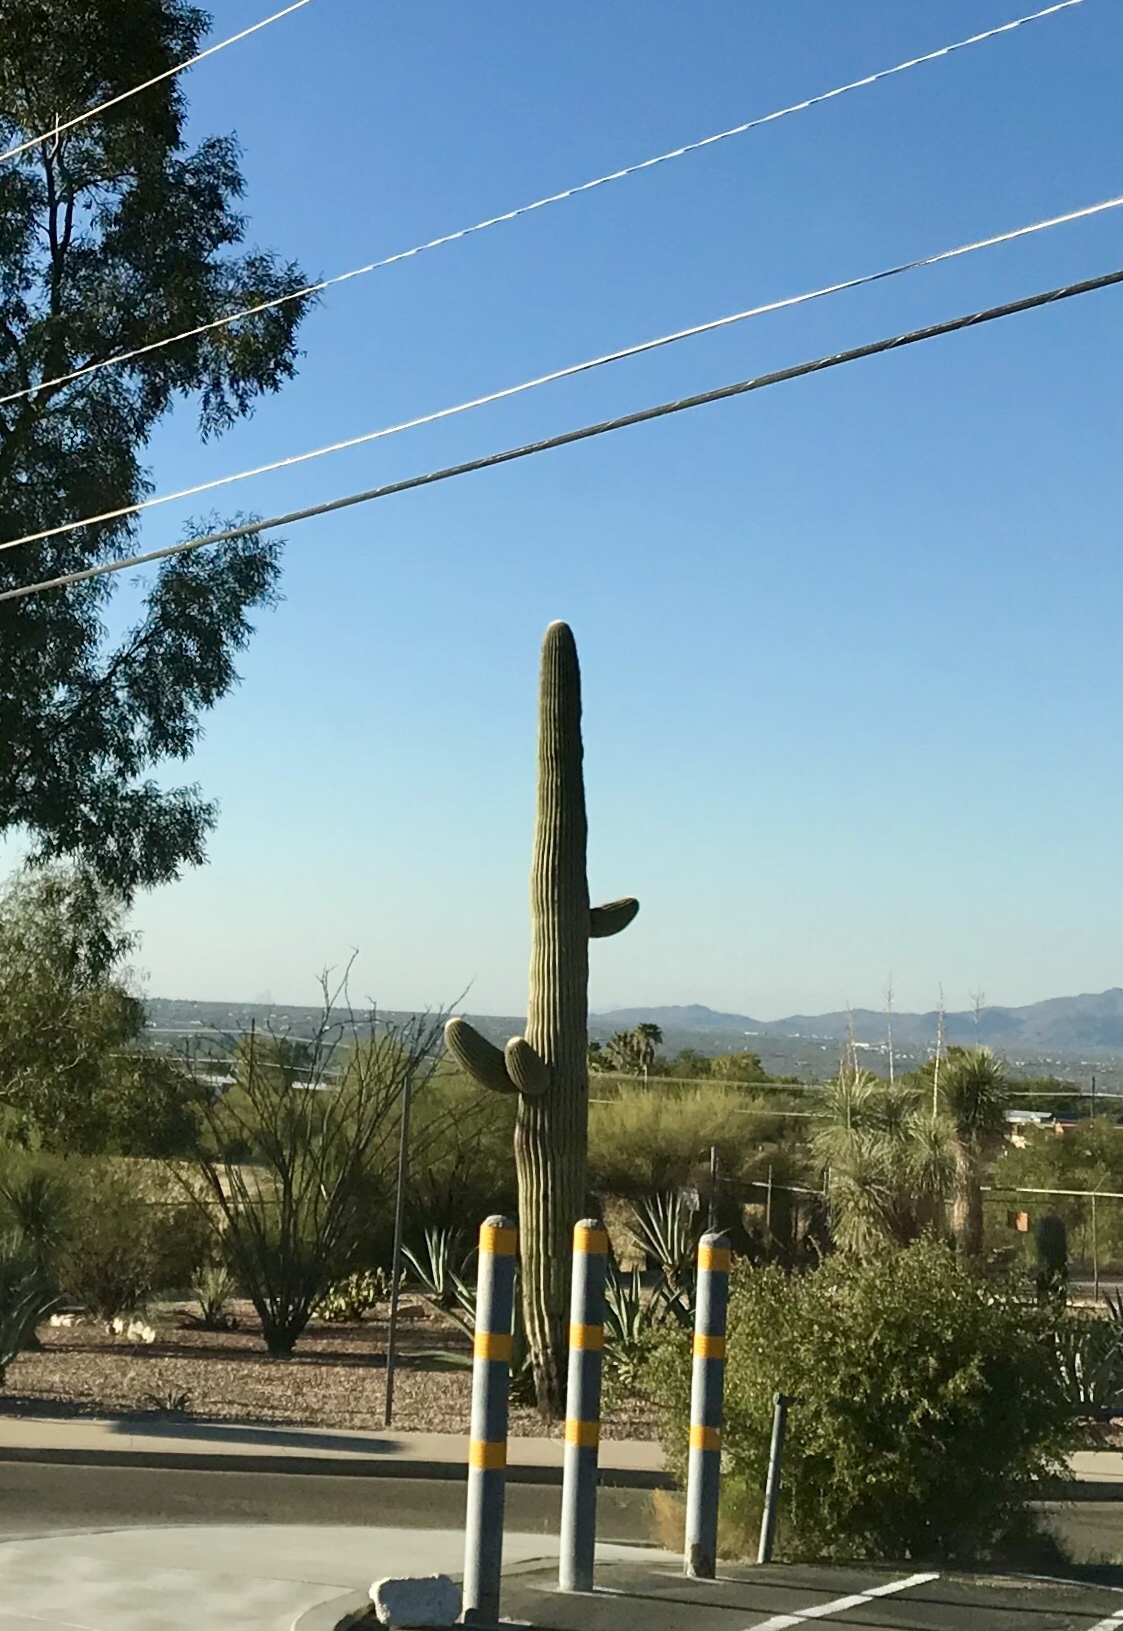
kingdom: Plantae
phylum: Tracheophyta
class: Magnoliopsida
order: Caryophyllales
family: Cactaceae
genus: Carnegiea
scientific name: Carnegiea gigantea
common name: Saguaro
